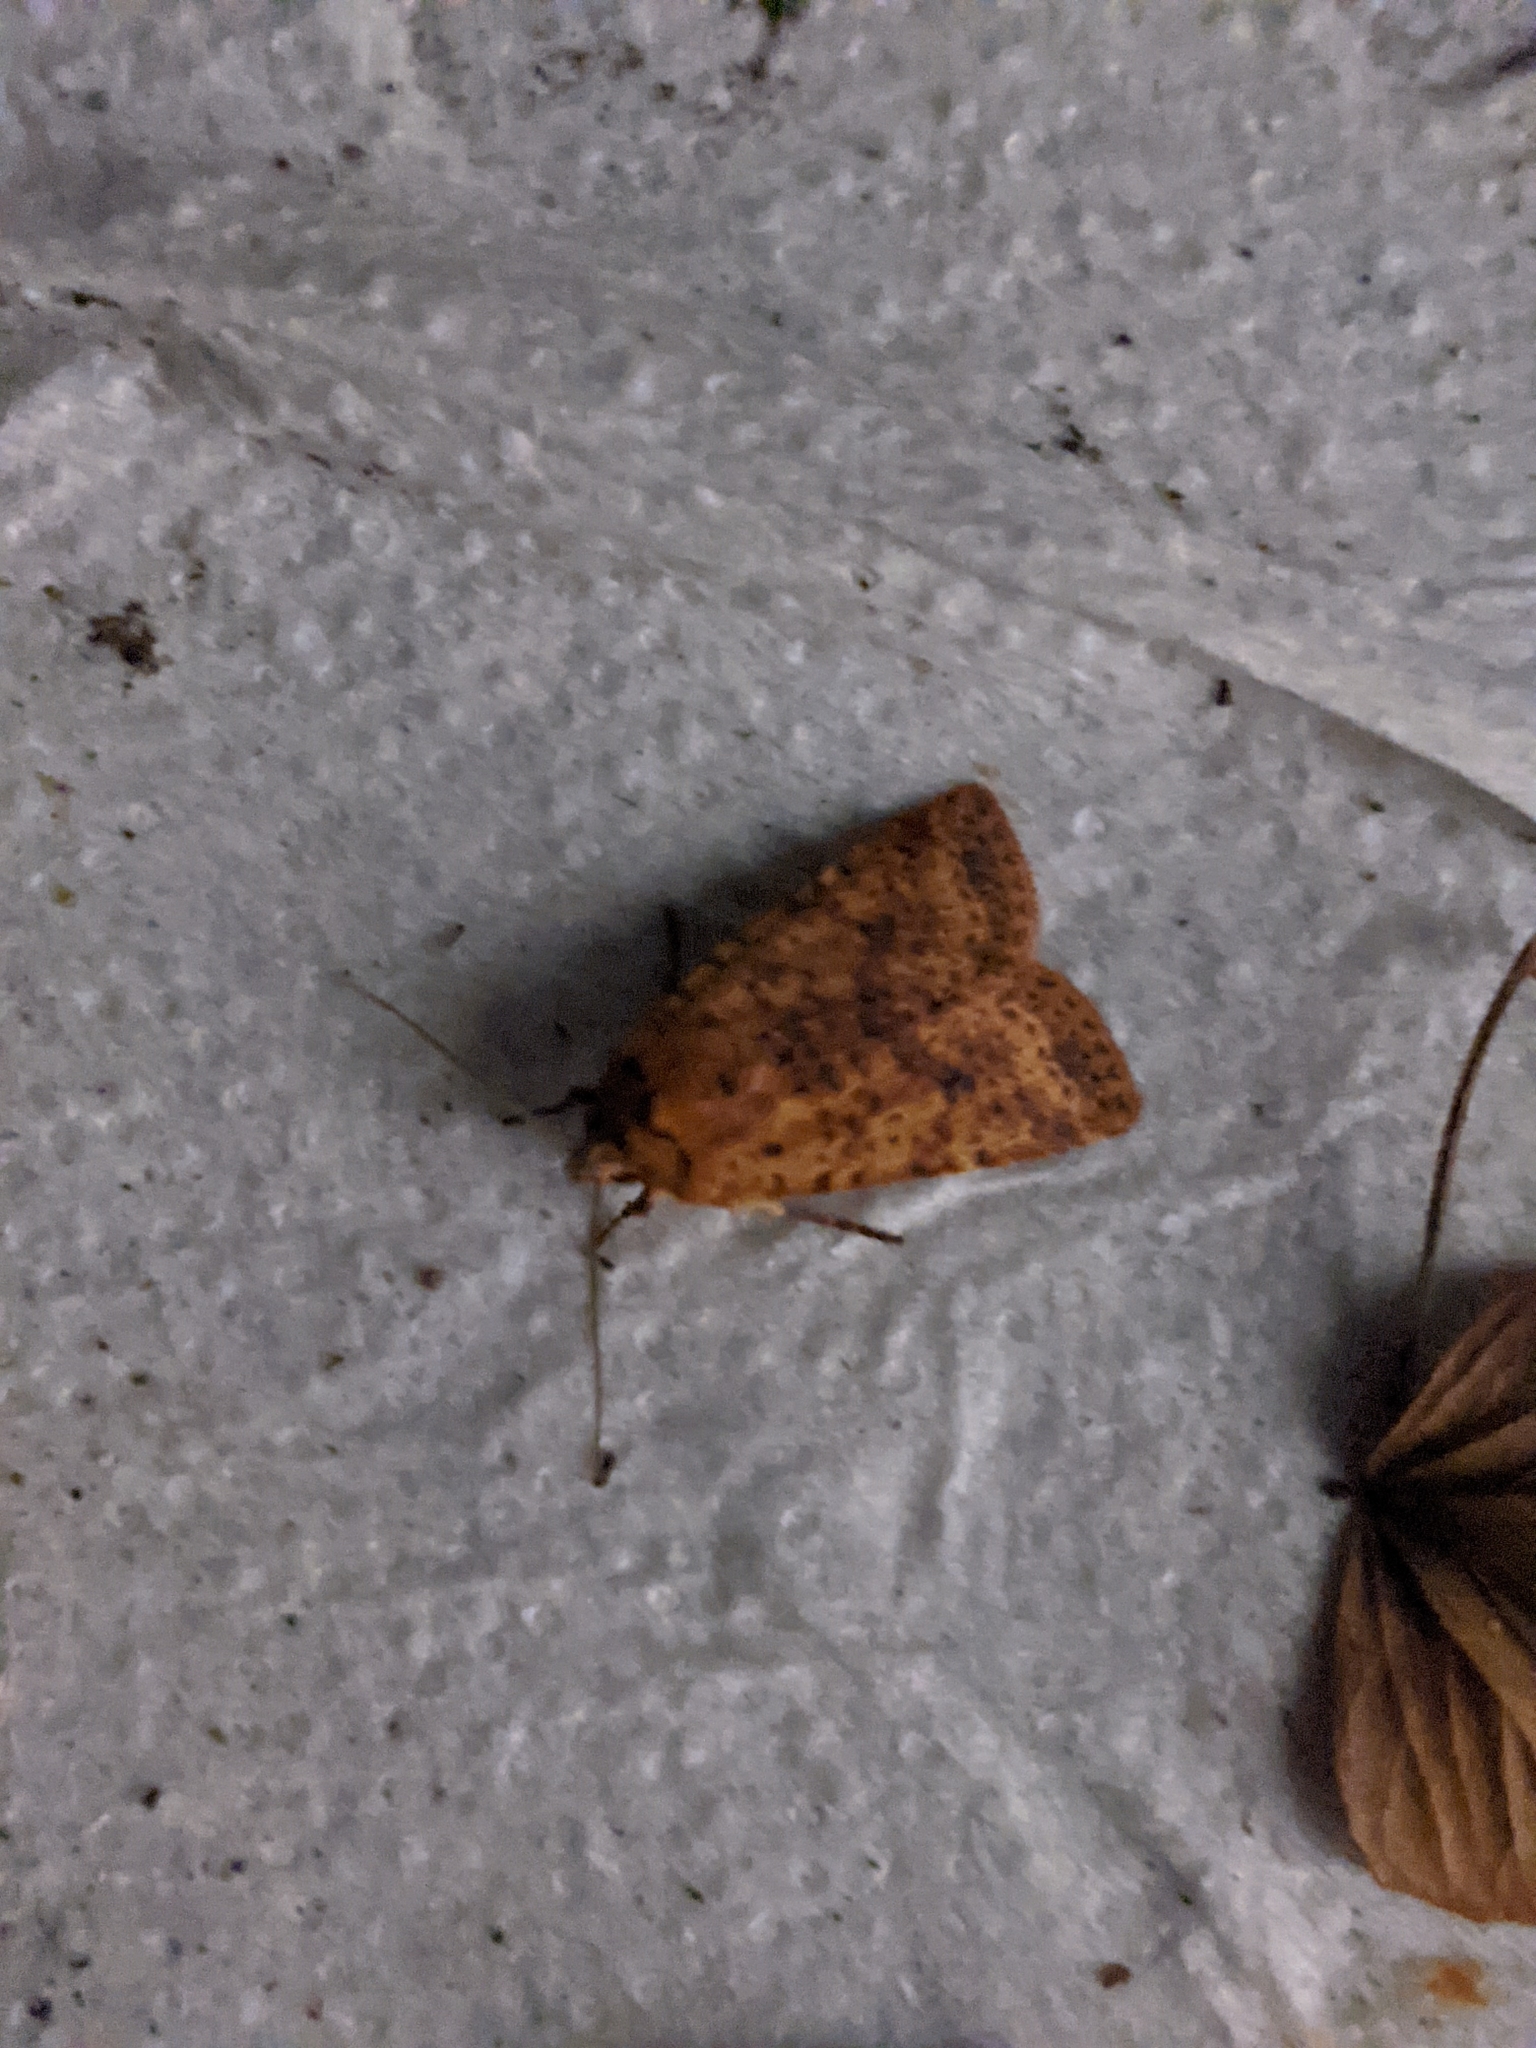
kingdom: Animalia
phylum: Arthropoda
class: Insecta
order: Lepidoptera
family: Noctuidae
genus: Conistra
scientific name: Conistra rubiginea
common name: Dotted chestnut
